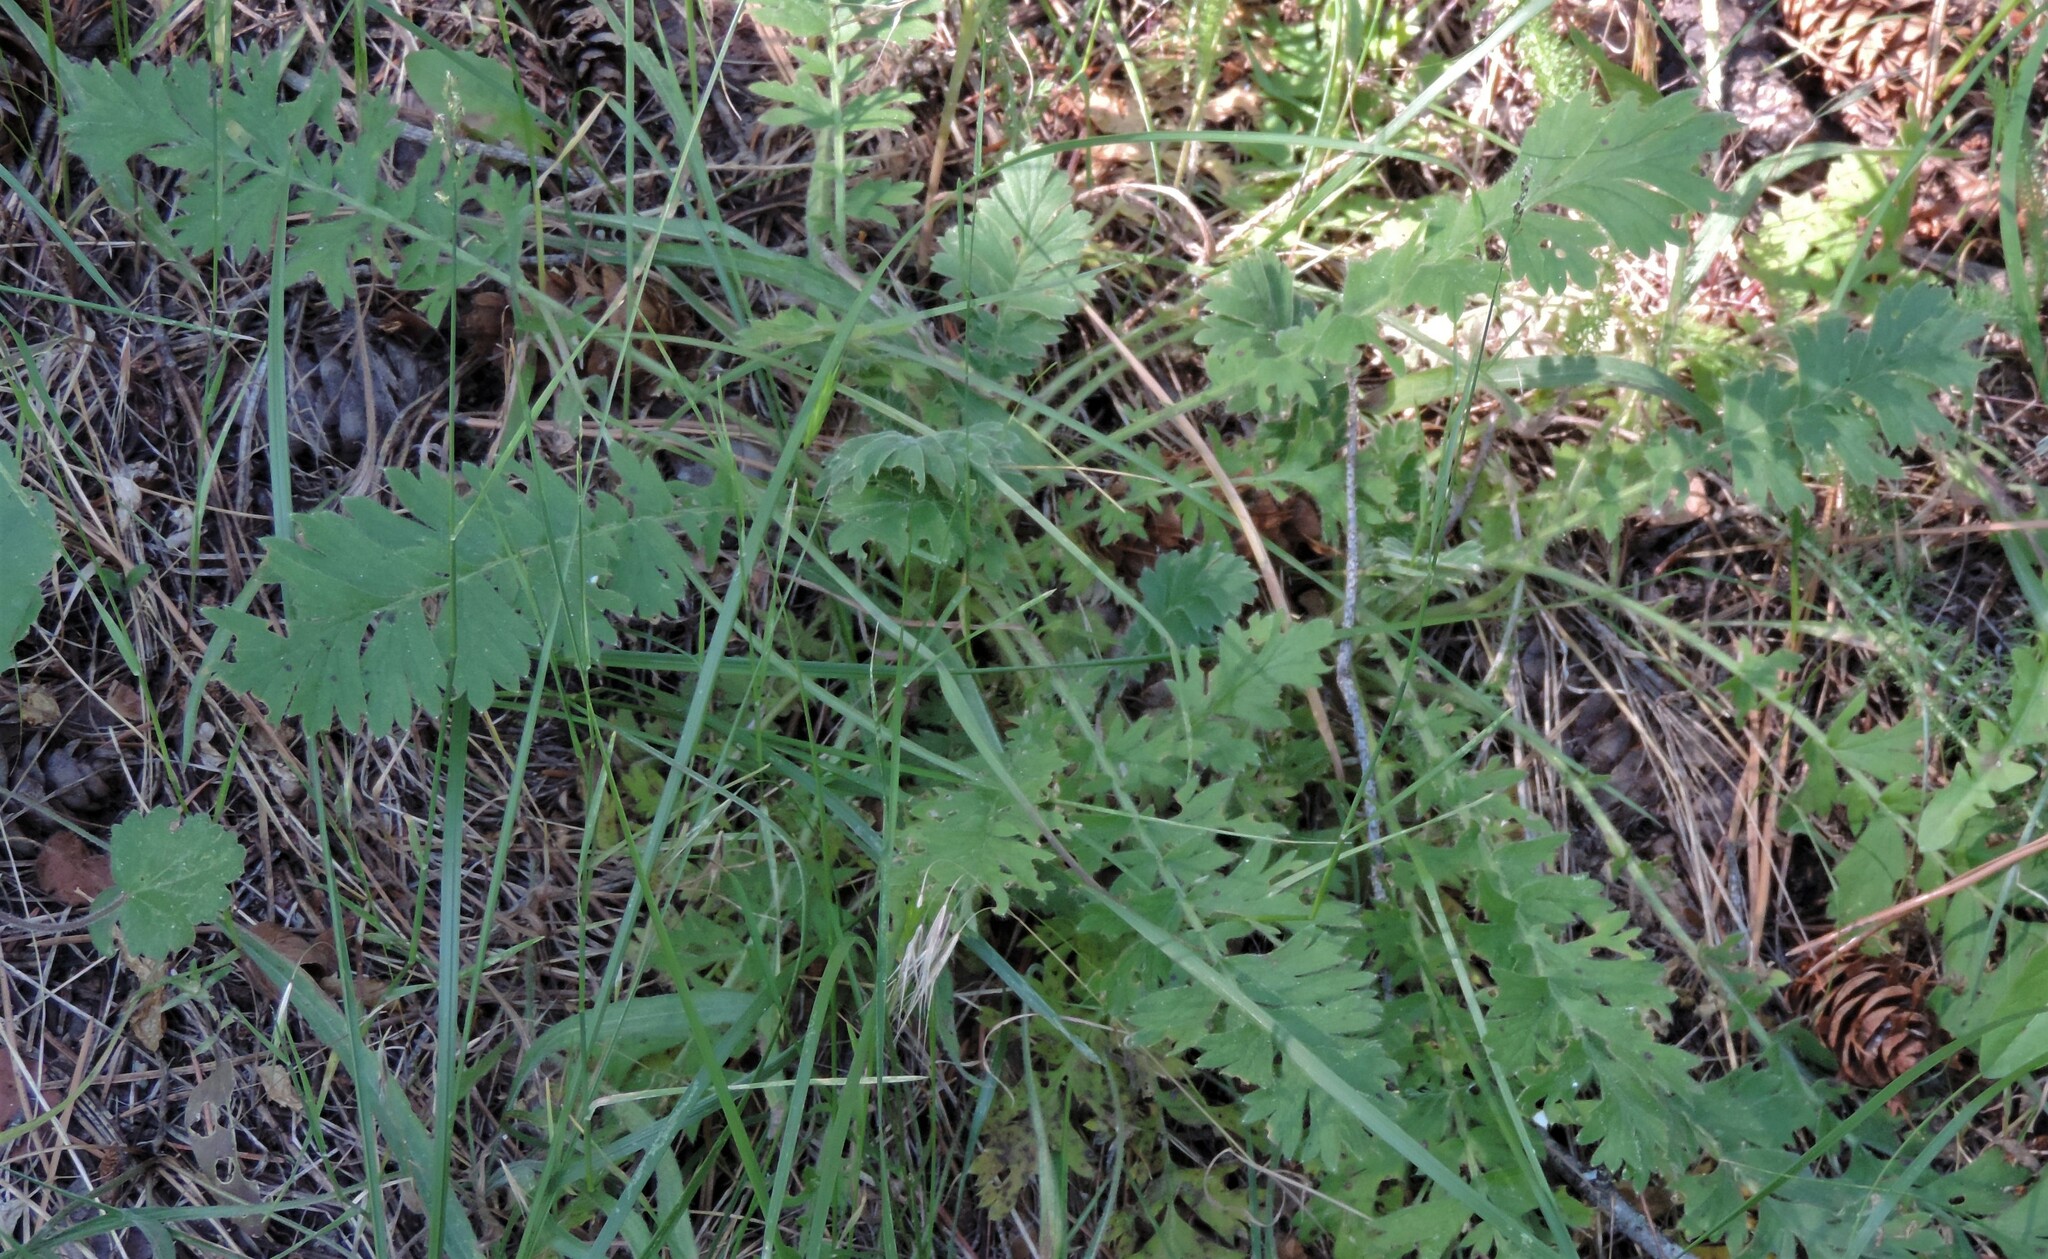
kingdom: Plantae
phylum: Tracheophyta
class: Magnoliopsida
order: Rosales
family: Rosaceae
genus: Geum
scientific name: Geum triflorum
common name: Old man's whiskers
